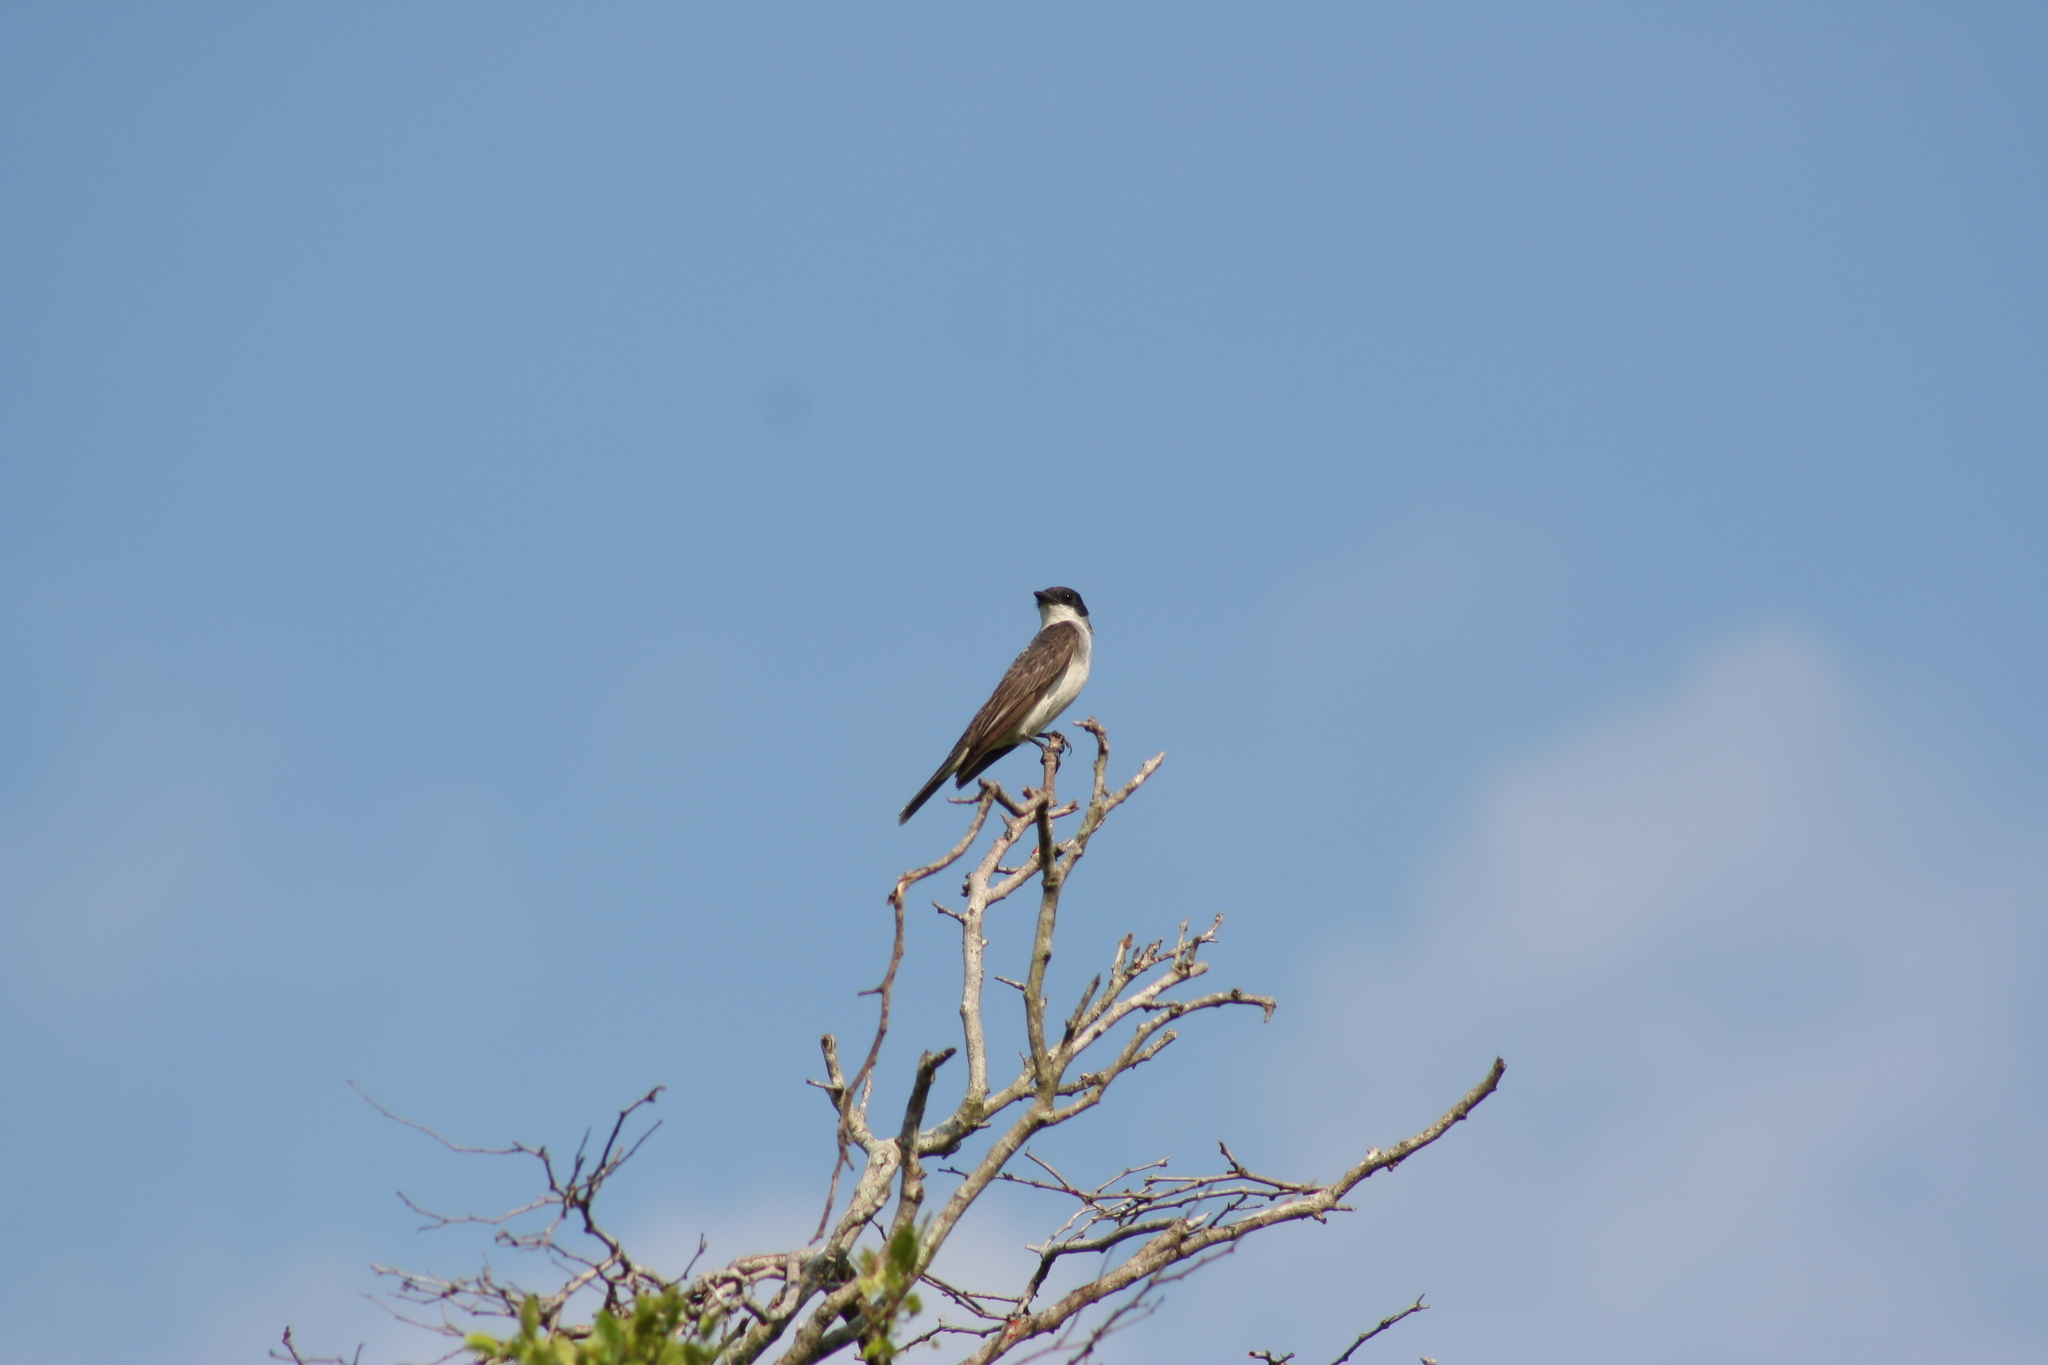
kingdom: Animalia
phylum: Chordata
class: Aves
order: Passeriformes
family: Tyrannidae
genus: Tyrannus
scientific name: Tyrannus tyrannus
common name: Eastern kingbird
